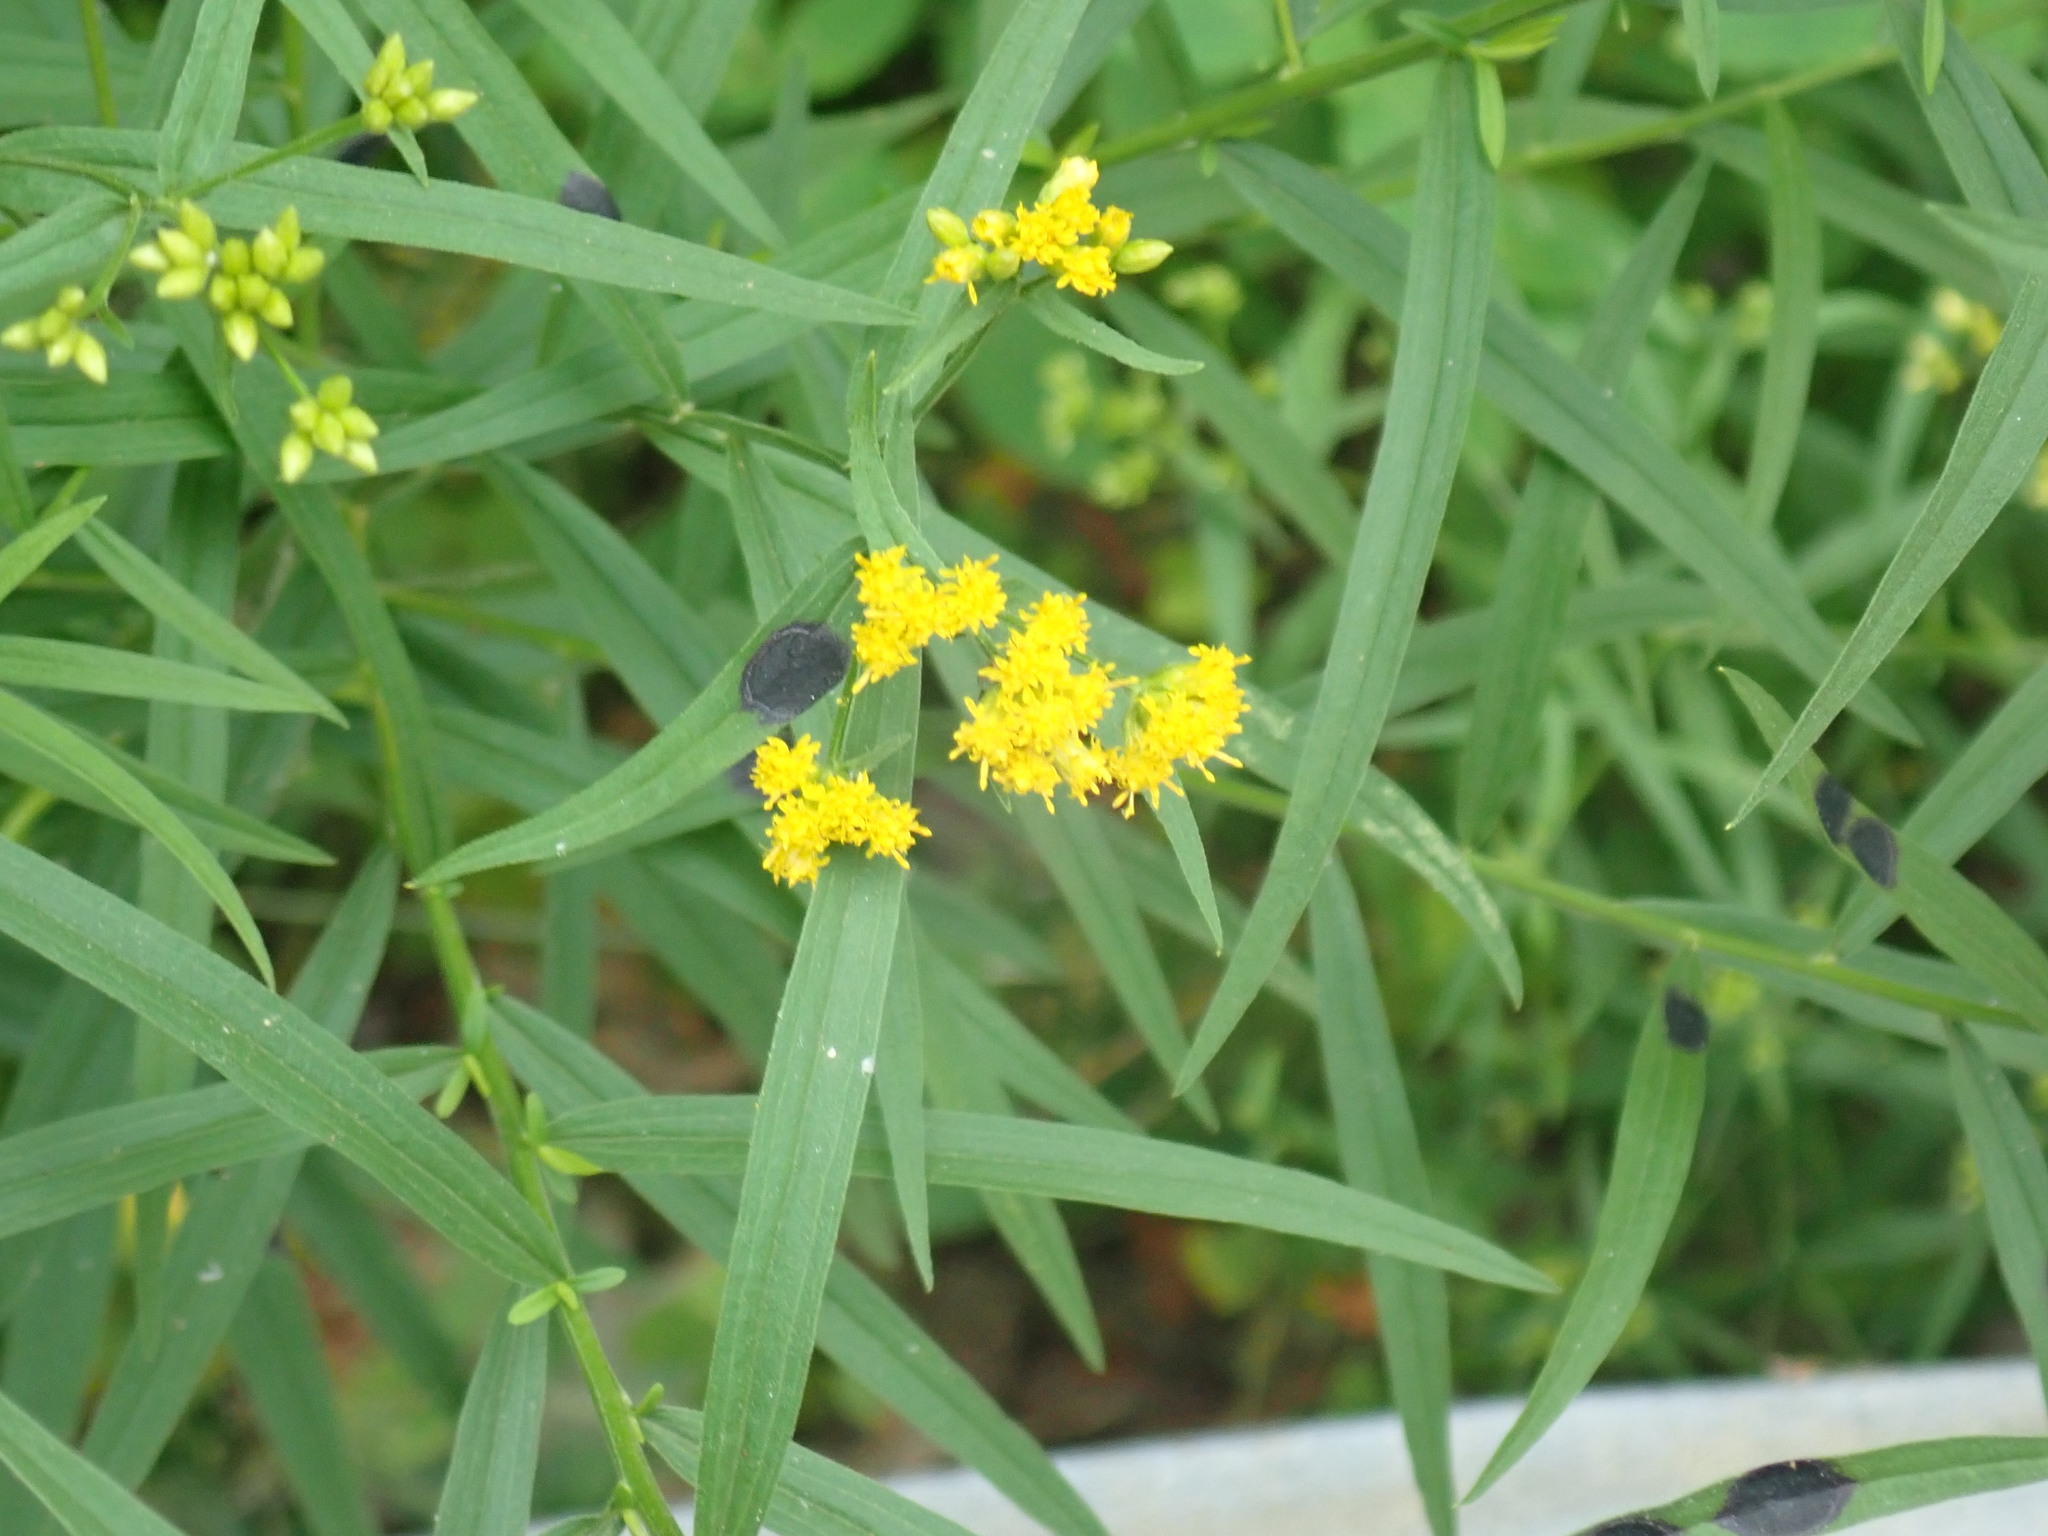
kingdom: Plantae
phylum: Tracheophyta
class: Magnoliopsida
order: Asterales
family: Asteraceae
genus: Euthamia
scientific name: Euthamia graminifolia
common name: Common goldentop
